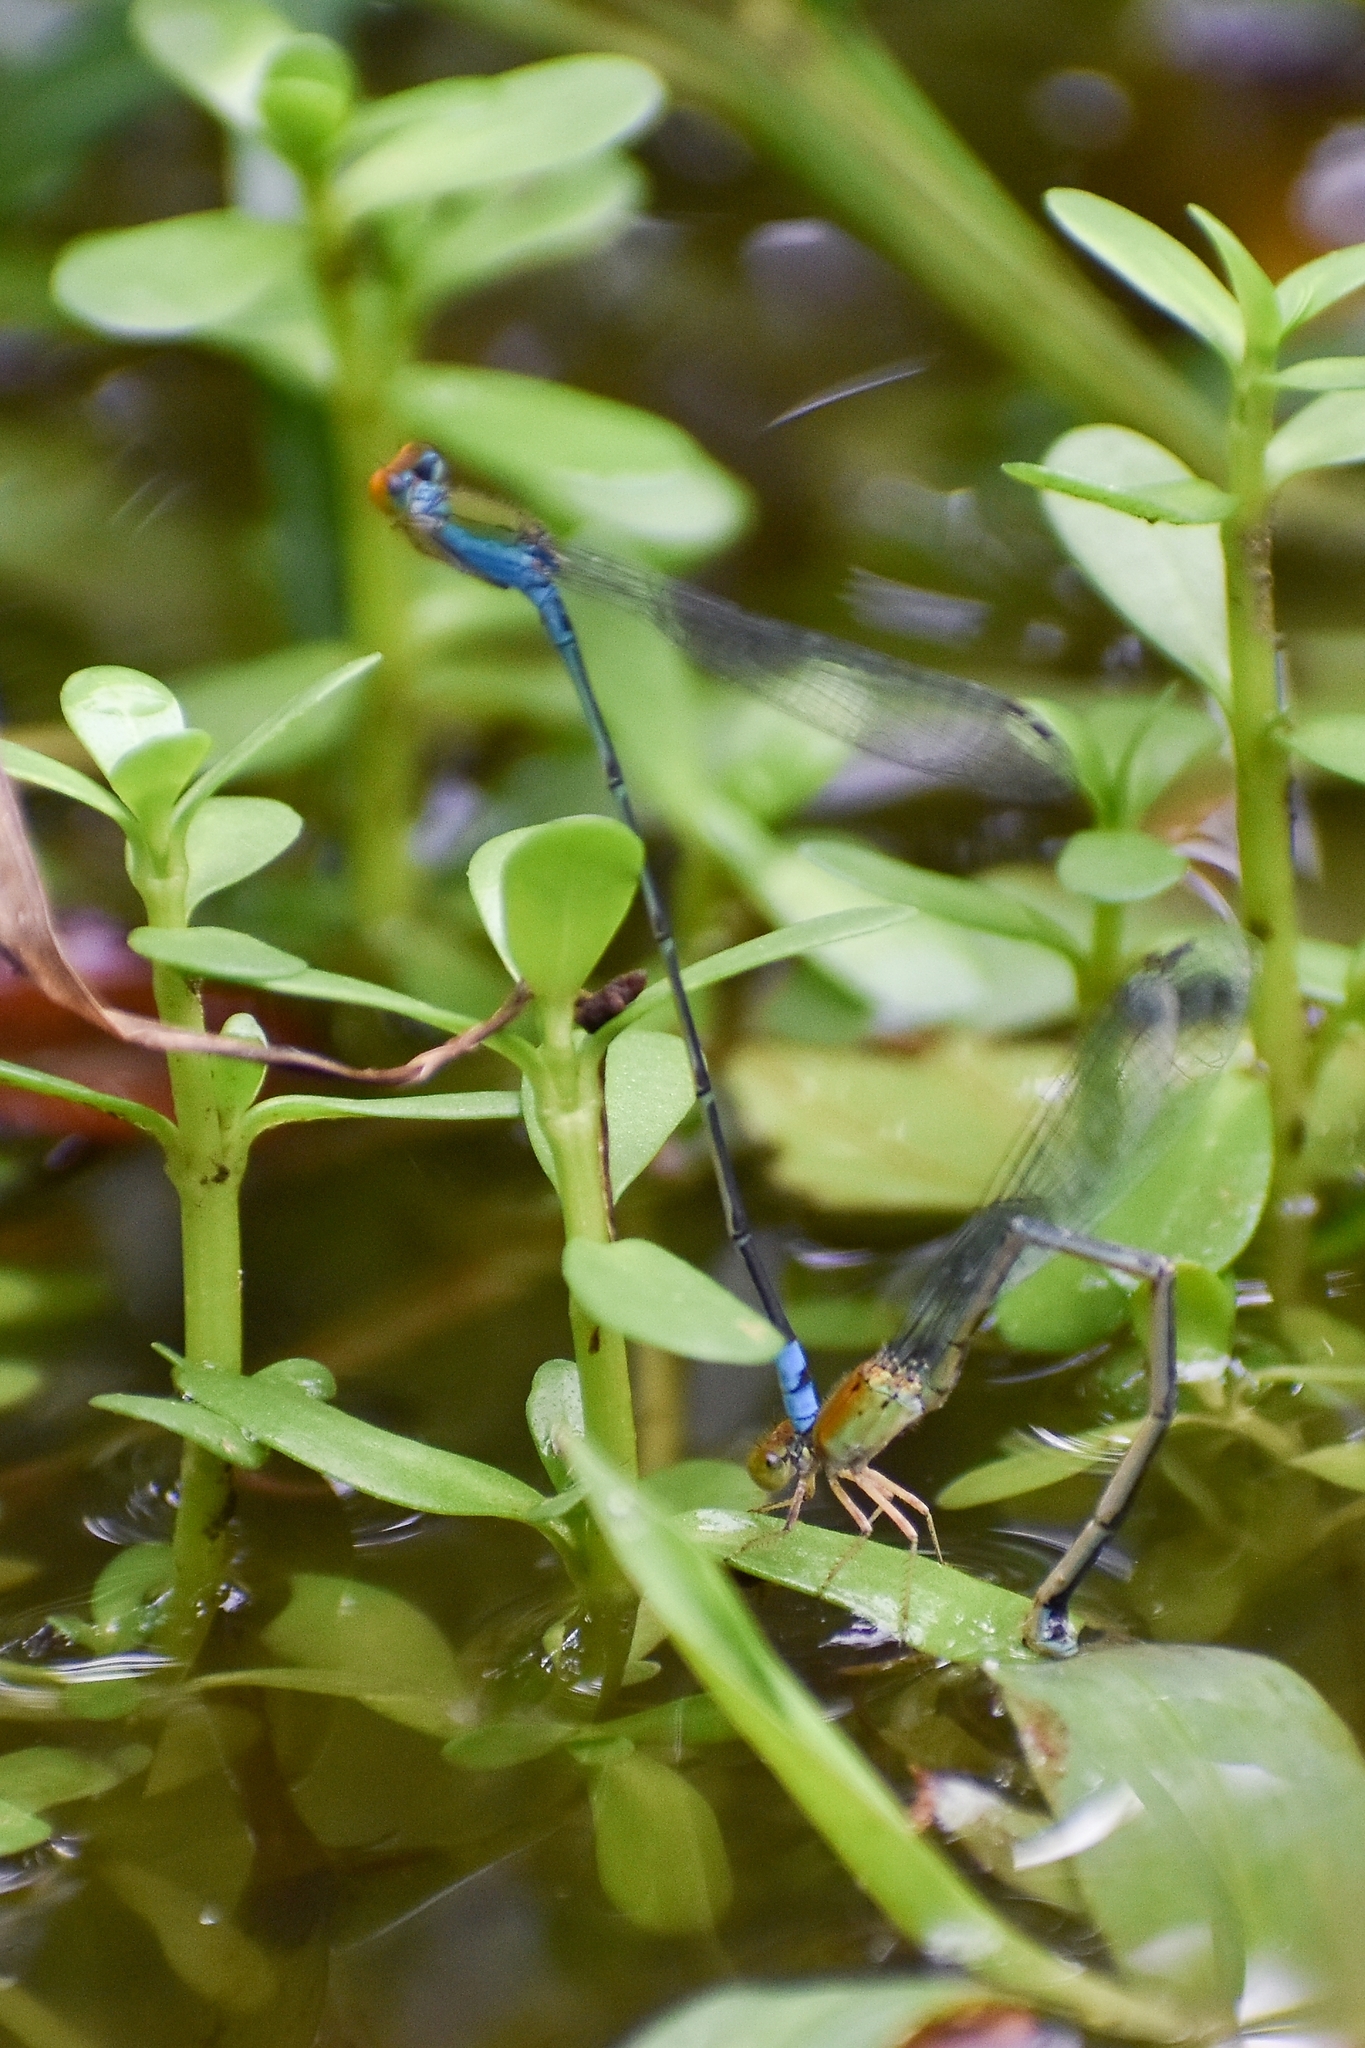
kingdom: Animalia
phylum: Arthropoda
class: Insecta
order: Odonata
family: Coenagrionidae
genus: Pseudagrion
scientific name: Pseudagrion rubriceps
